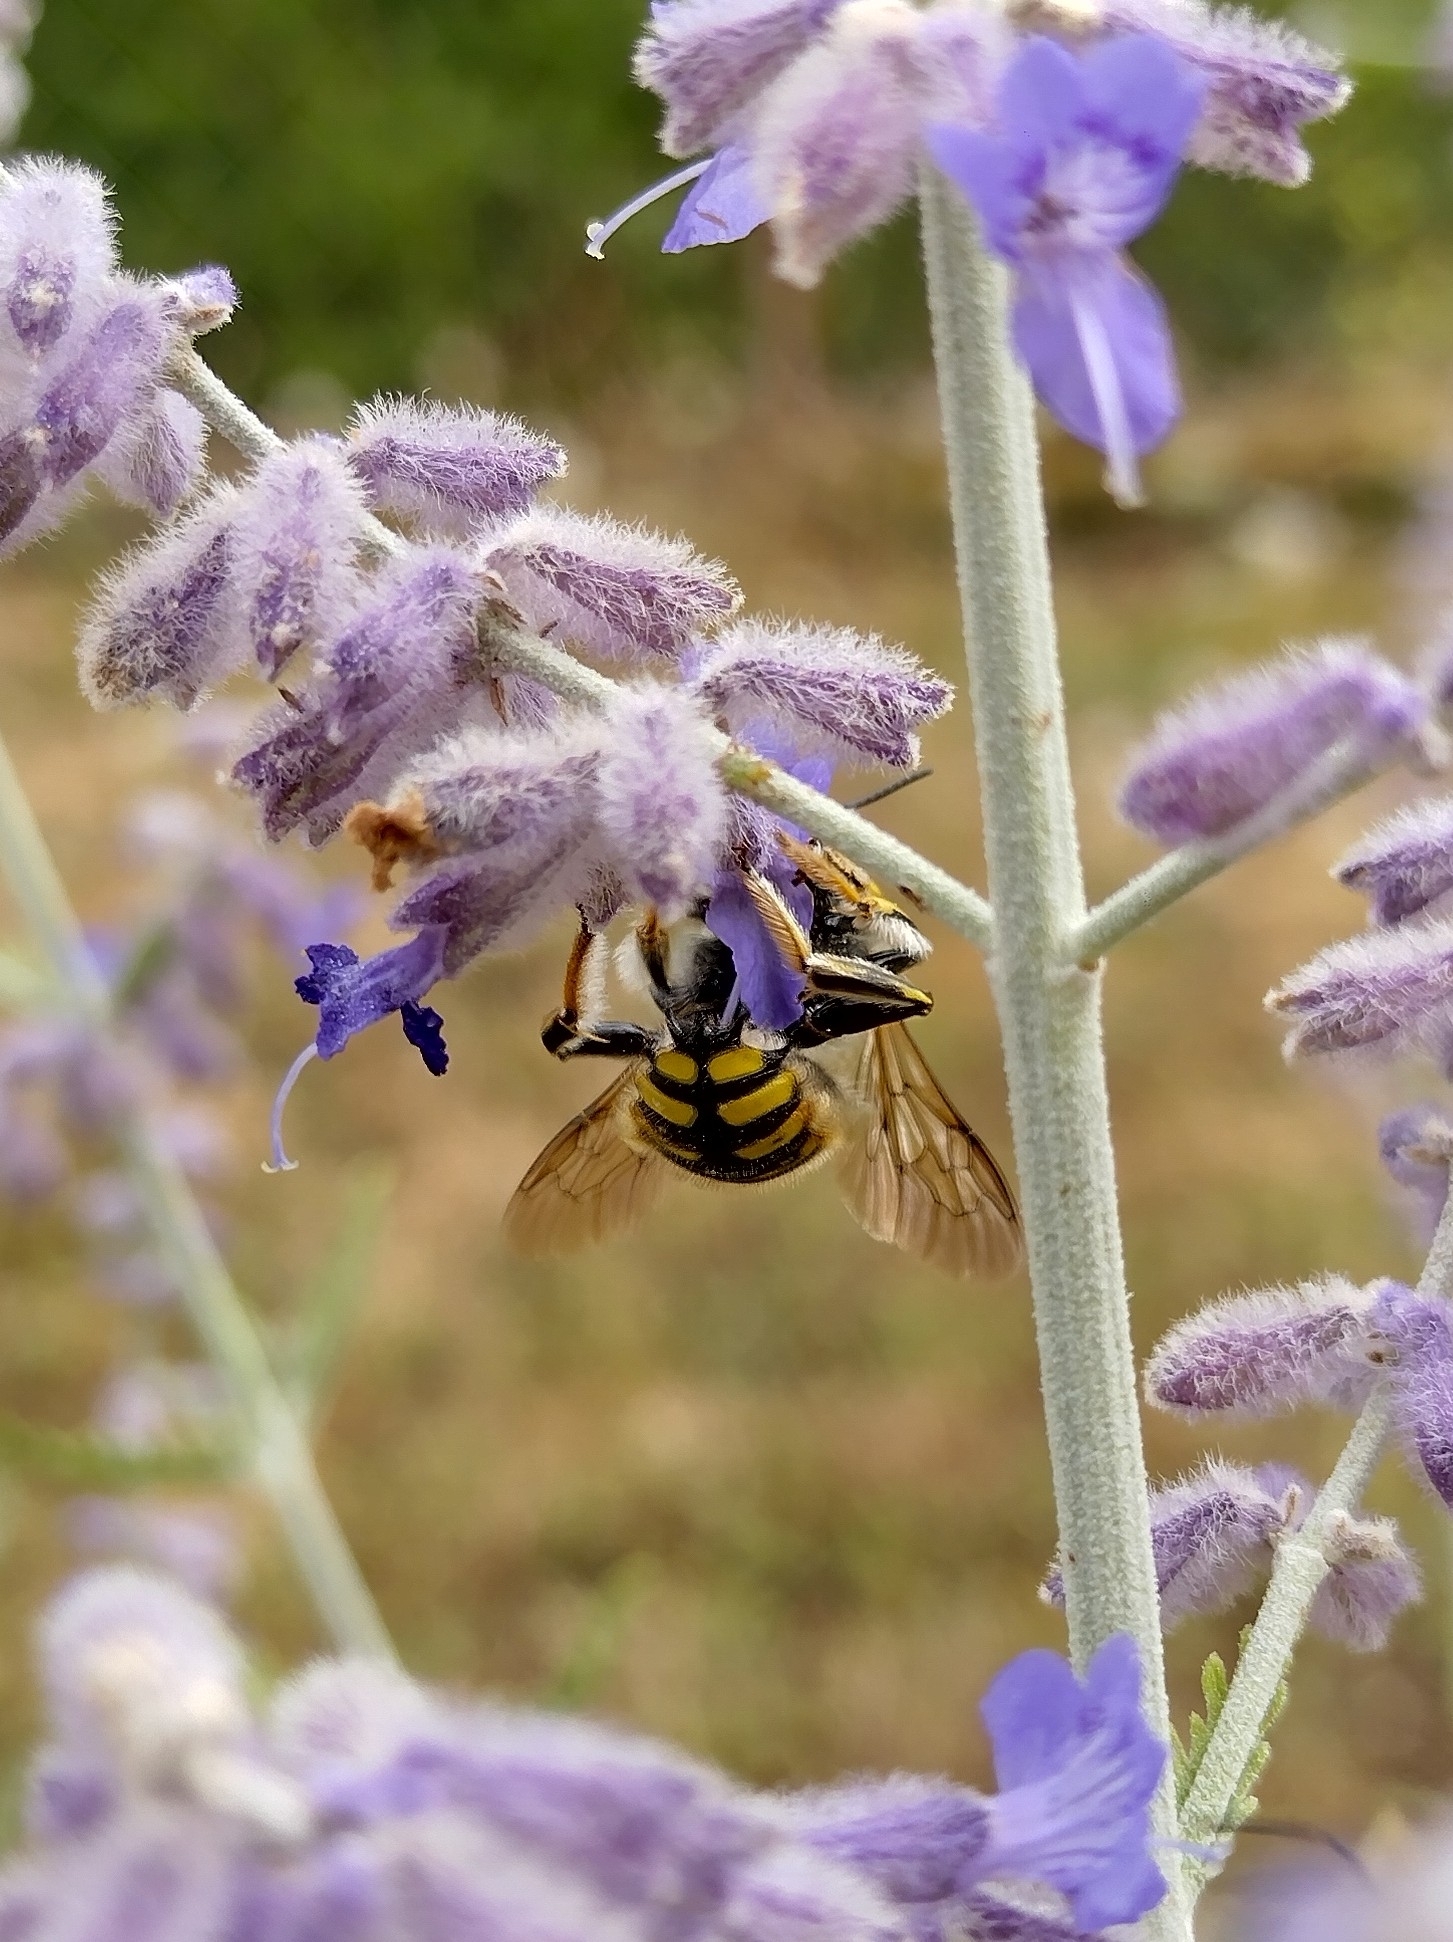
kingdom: Animalia
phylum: Arthropoda
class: Insecta
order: Hymenoptera
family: Megachilidae
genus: Anthidium
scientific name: Anthidium manicatum
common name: Wool carder bee
